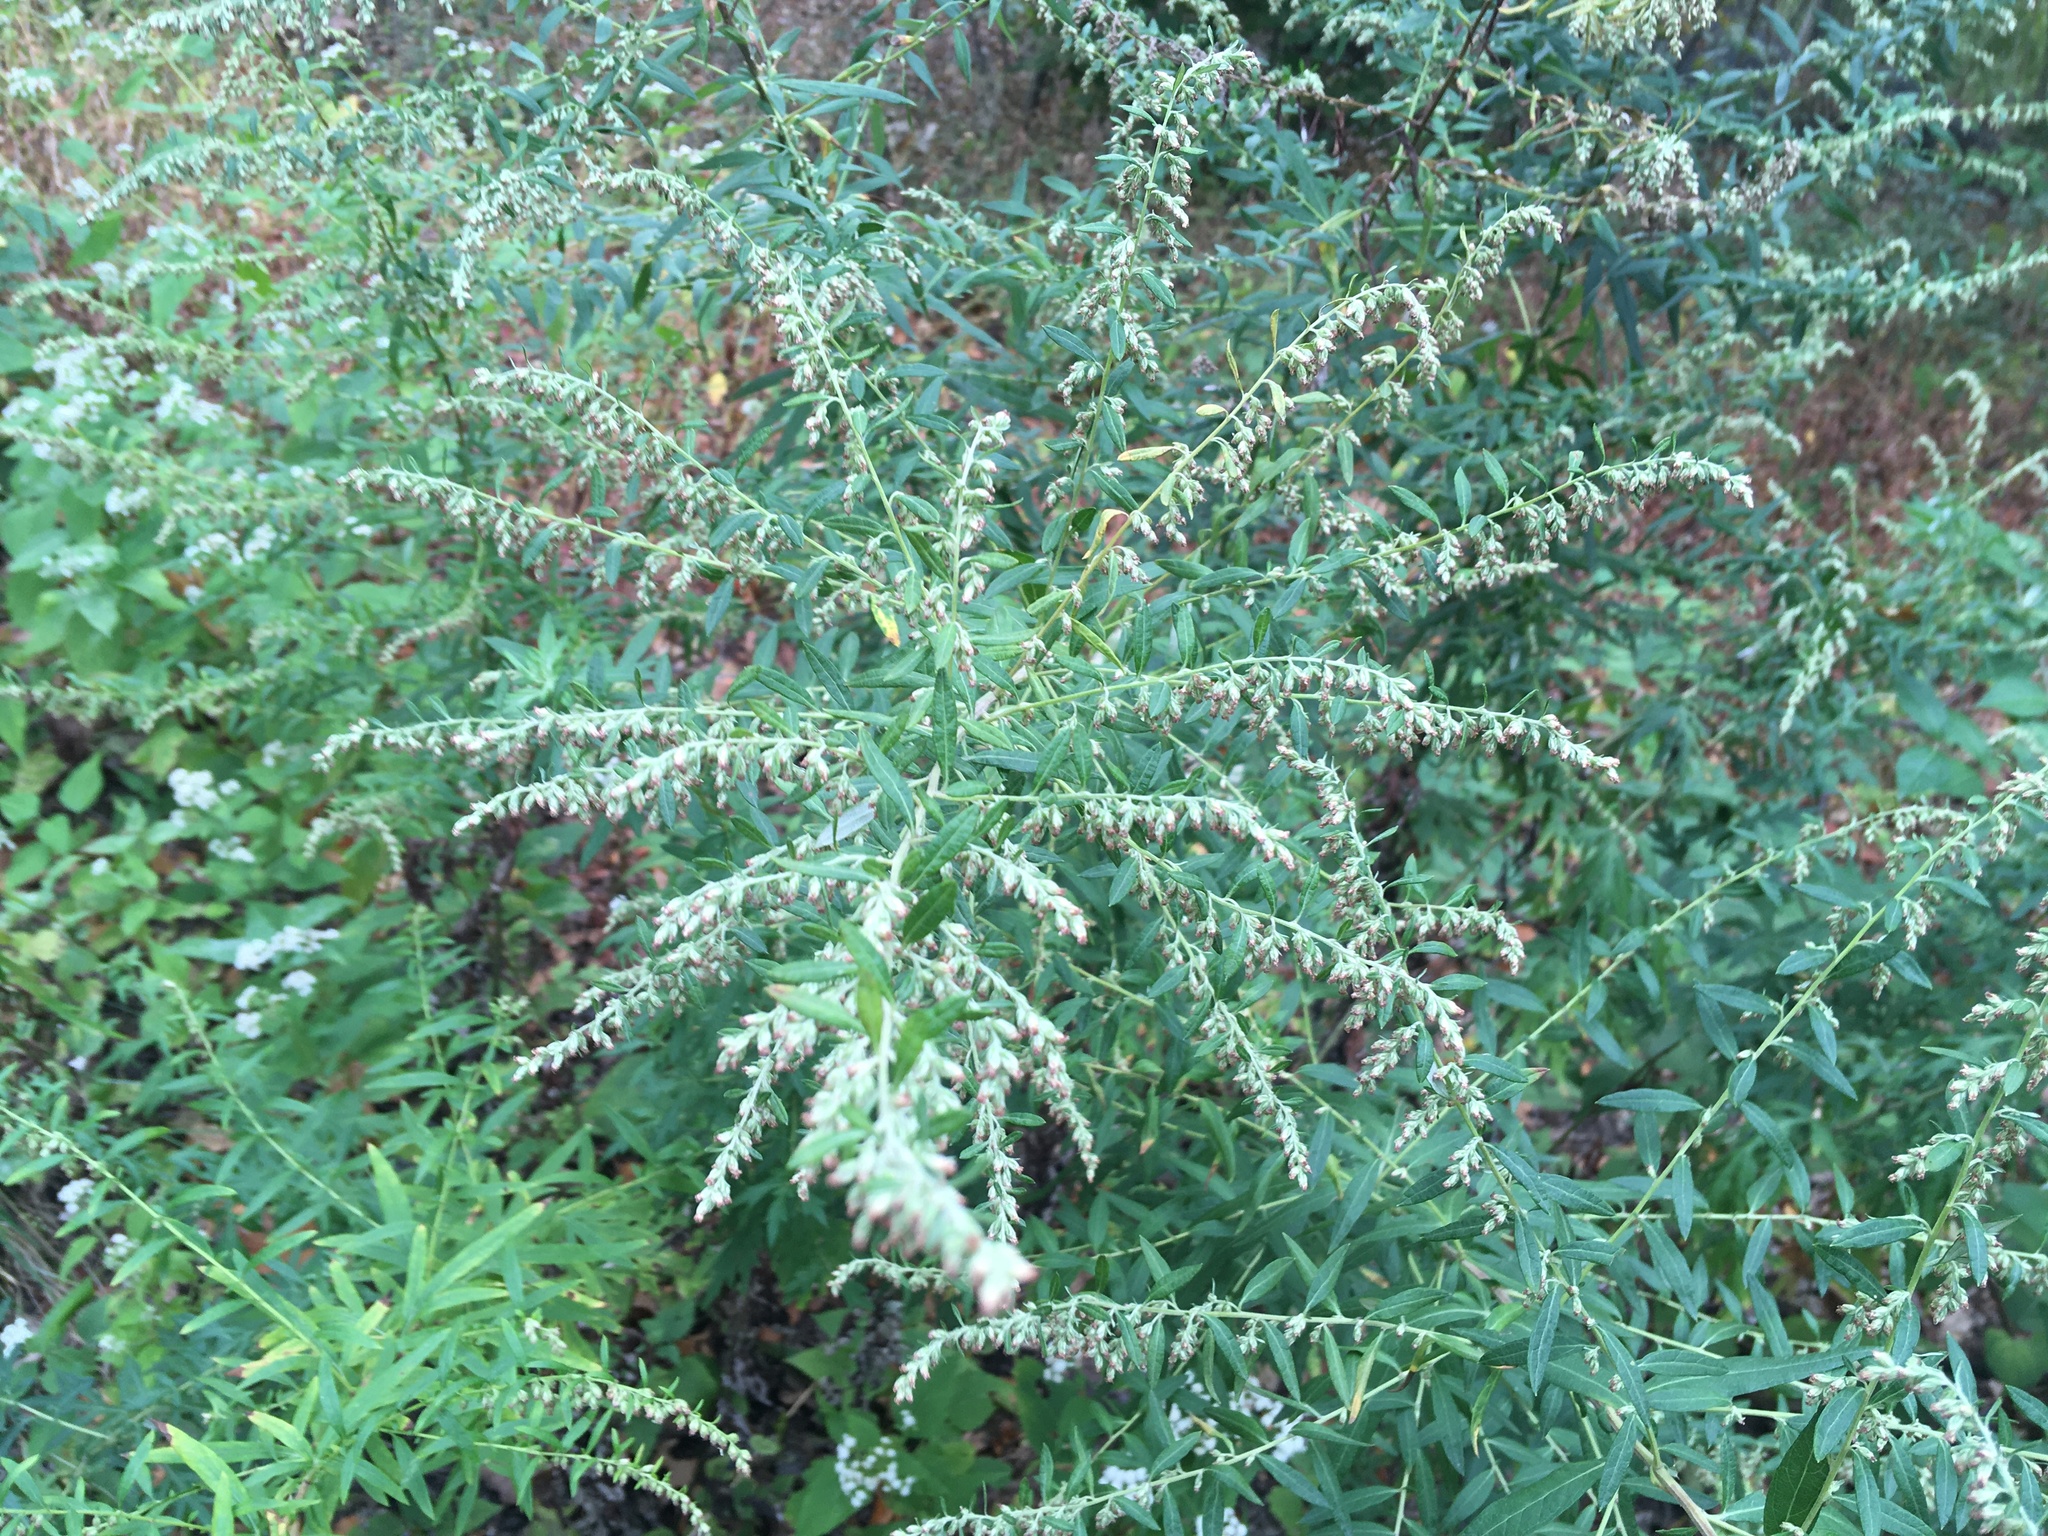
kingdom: Plantae
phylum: Tracheophyta
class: Magnoliopsida
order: Asterales
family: Asteraceae
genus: Artemisia
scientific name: Artemisia vulgaris
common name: Mugwort
